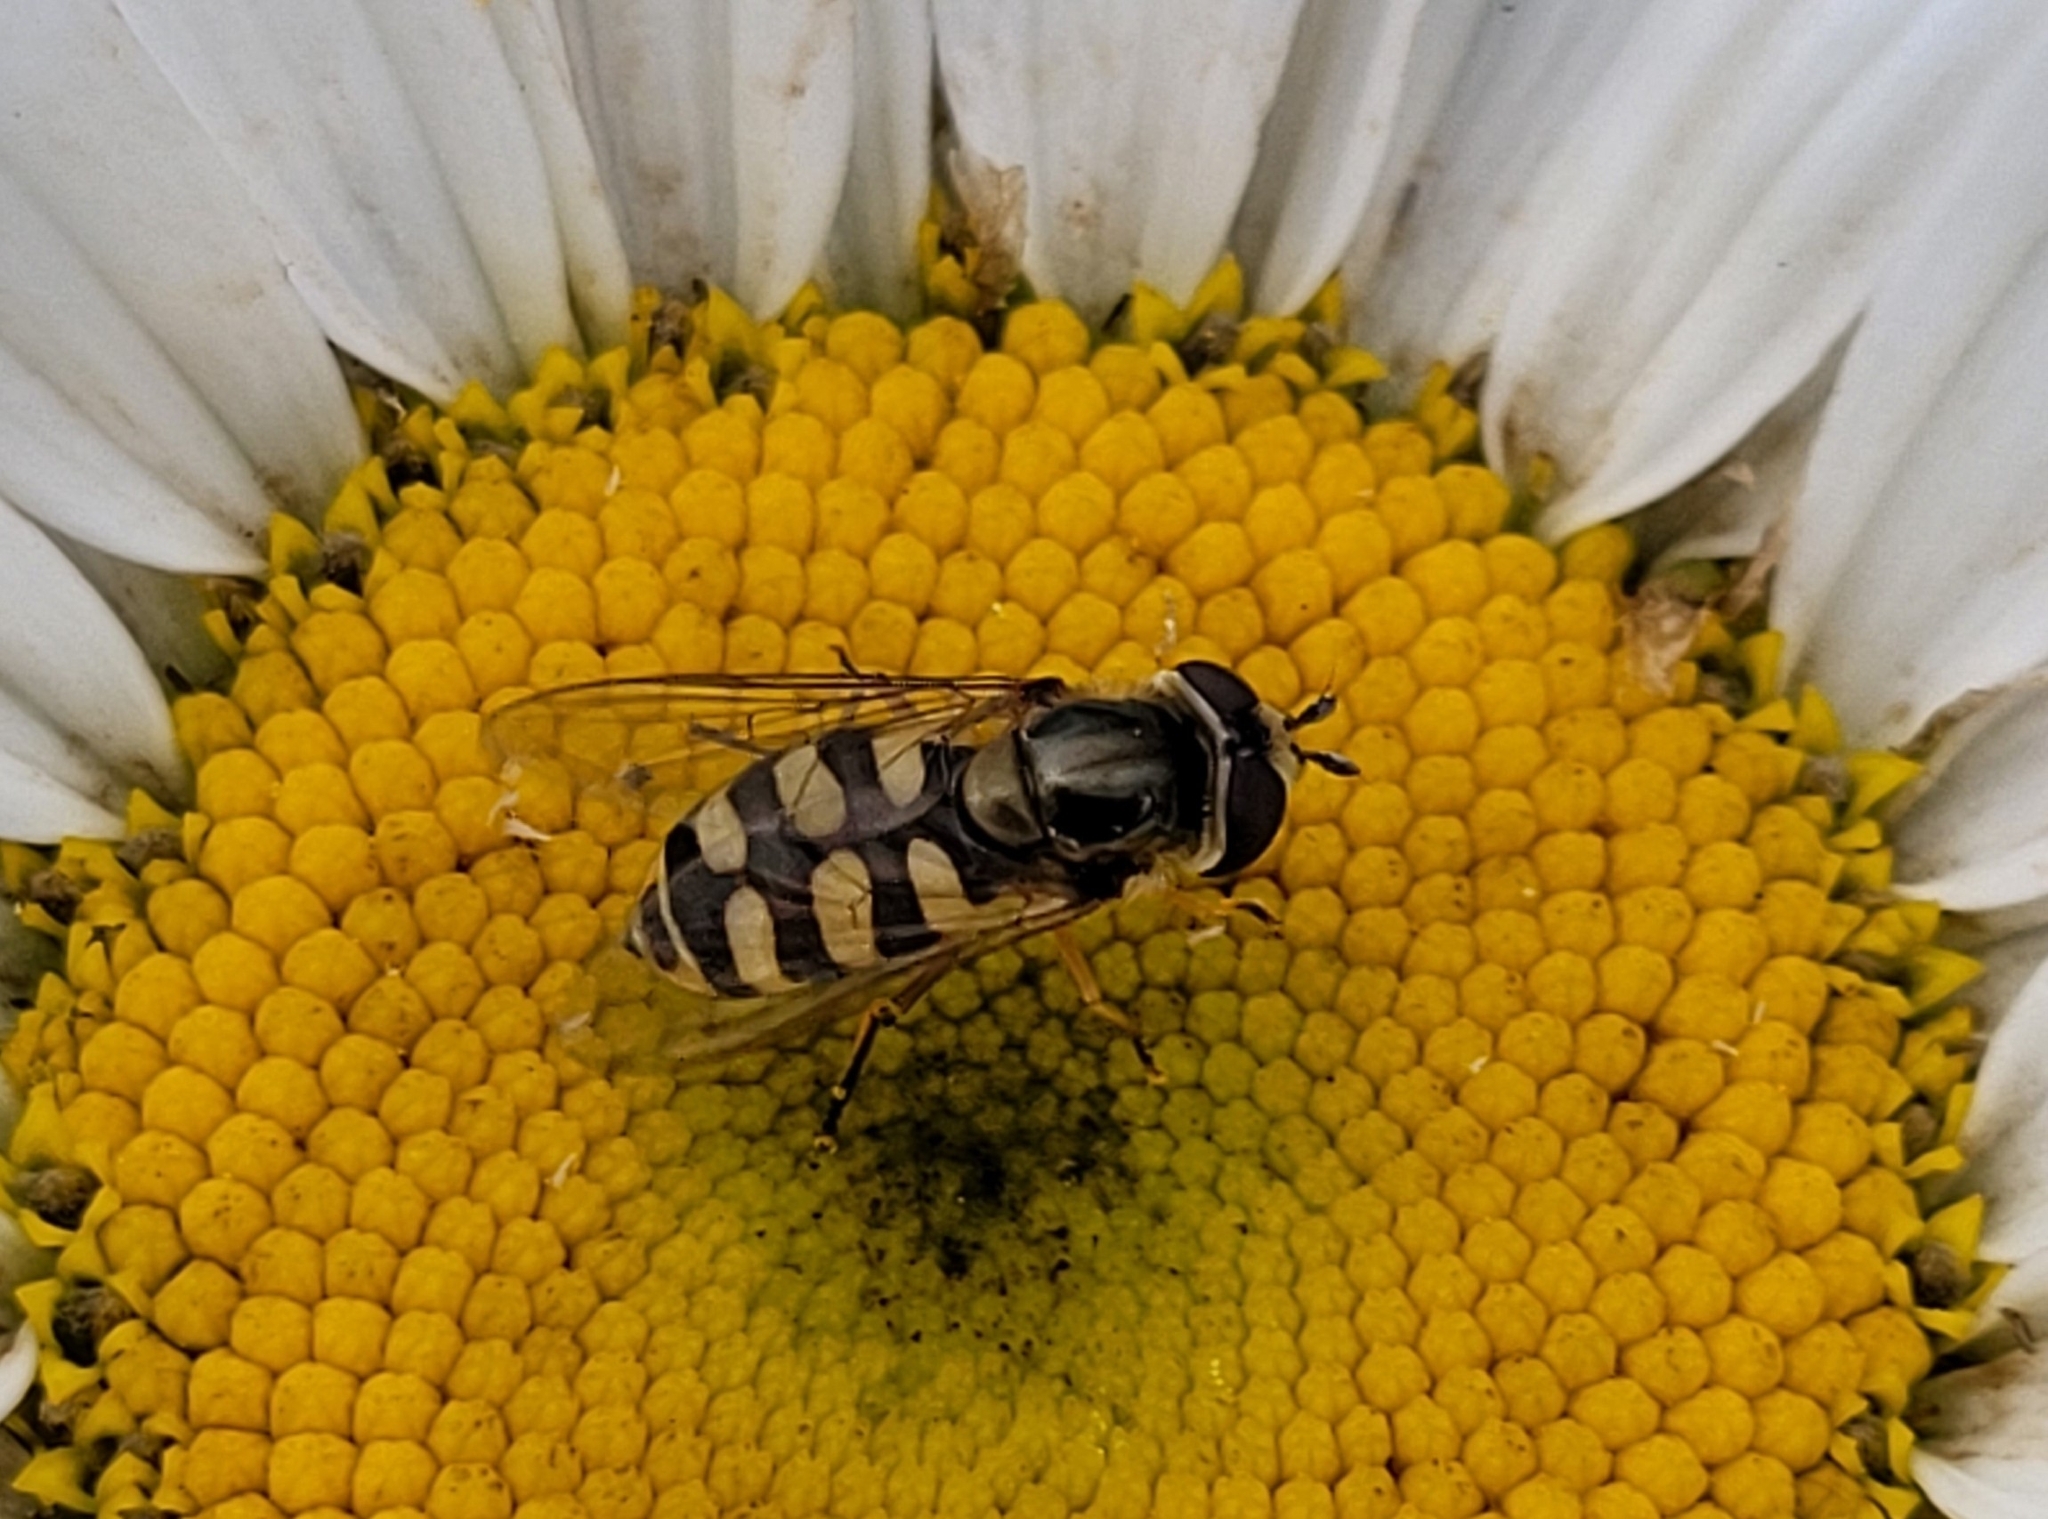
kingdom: Animalia
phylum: Arthropoda
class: Insecta
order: Diptera
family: Syrphidae
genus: Eupeodes
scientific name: Eupeodes corollae
